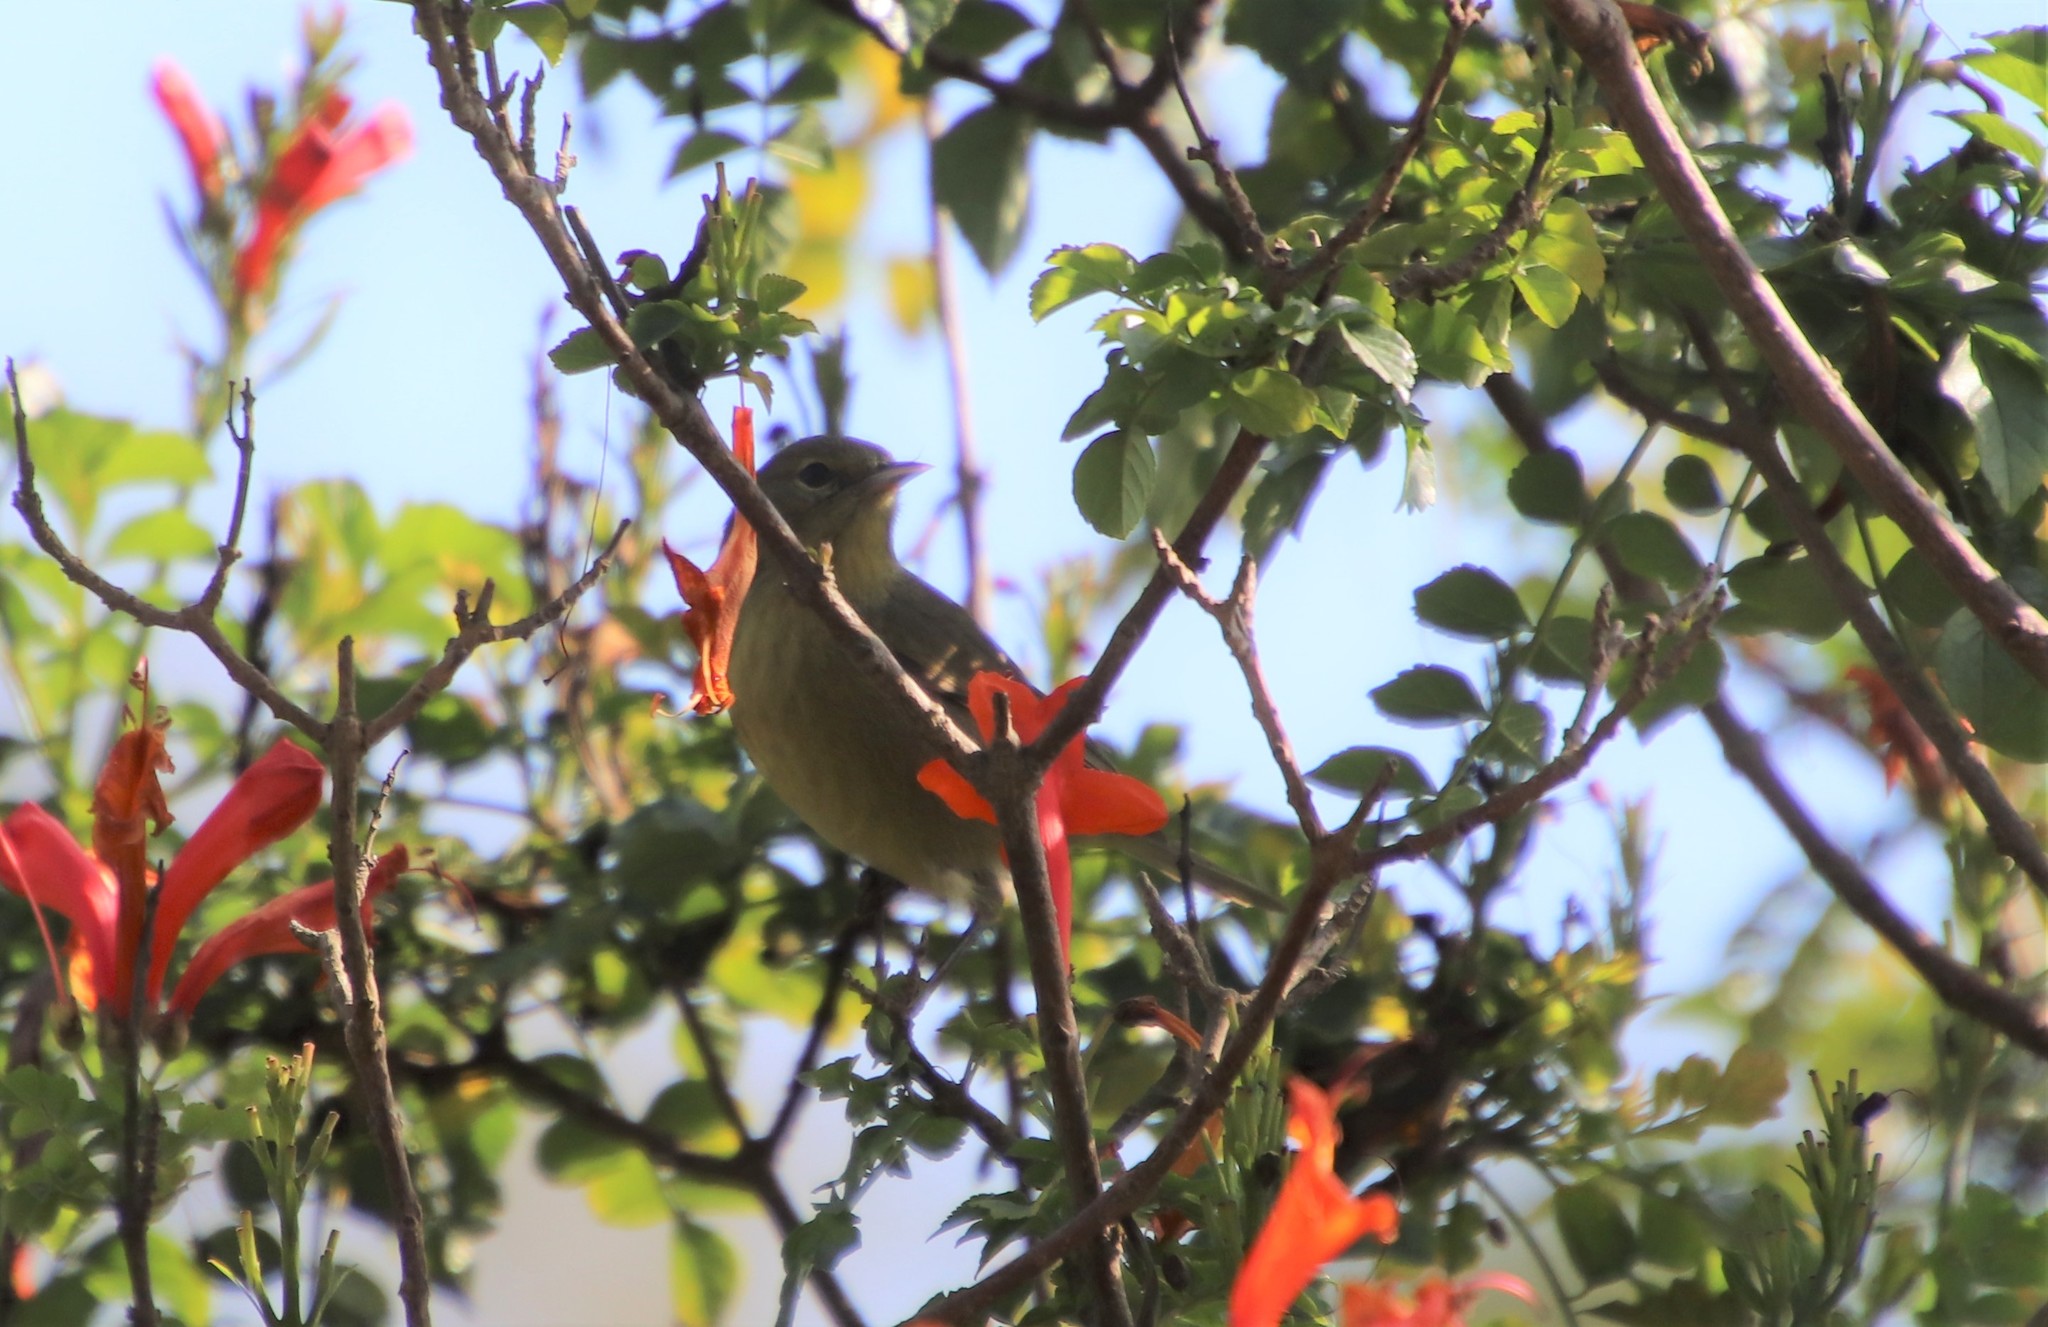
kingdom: Animalia
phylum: Chordata
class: Aves
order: Passeriformes
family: Parulidae
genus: Leiothlypis
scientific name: Leiothlypis celata
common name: Orange-crowned warbler
